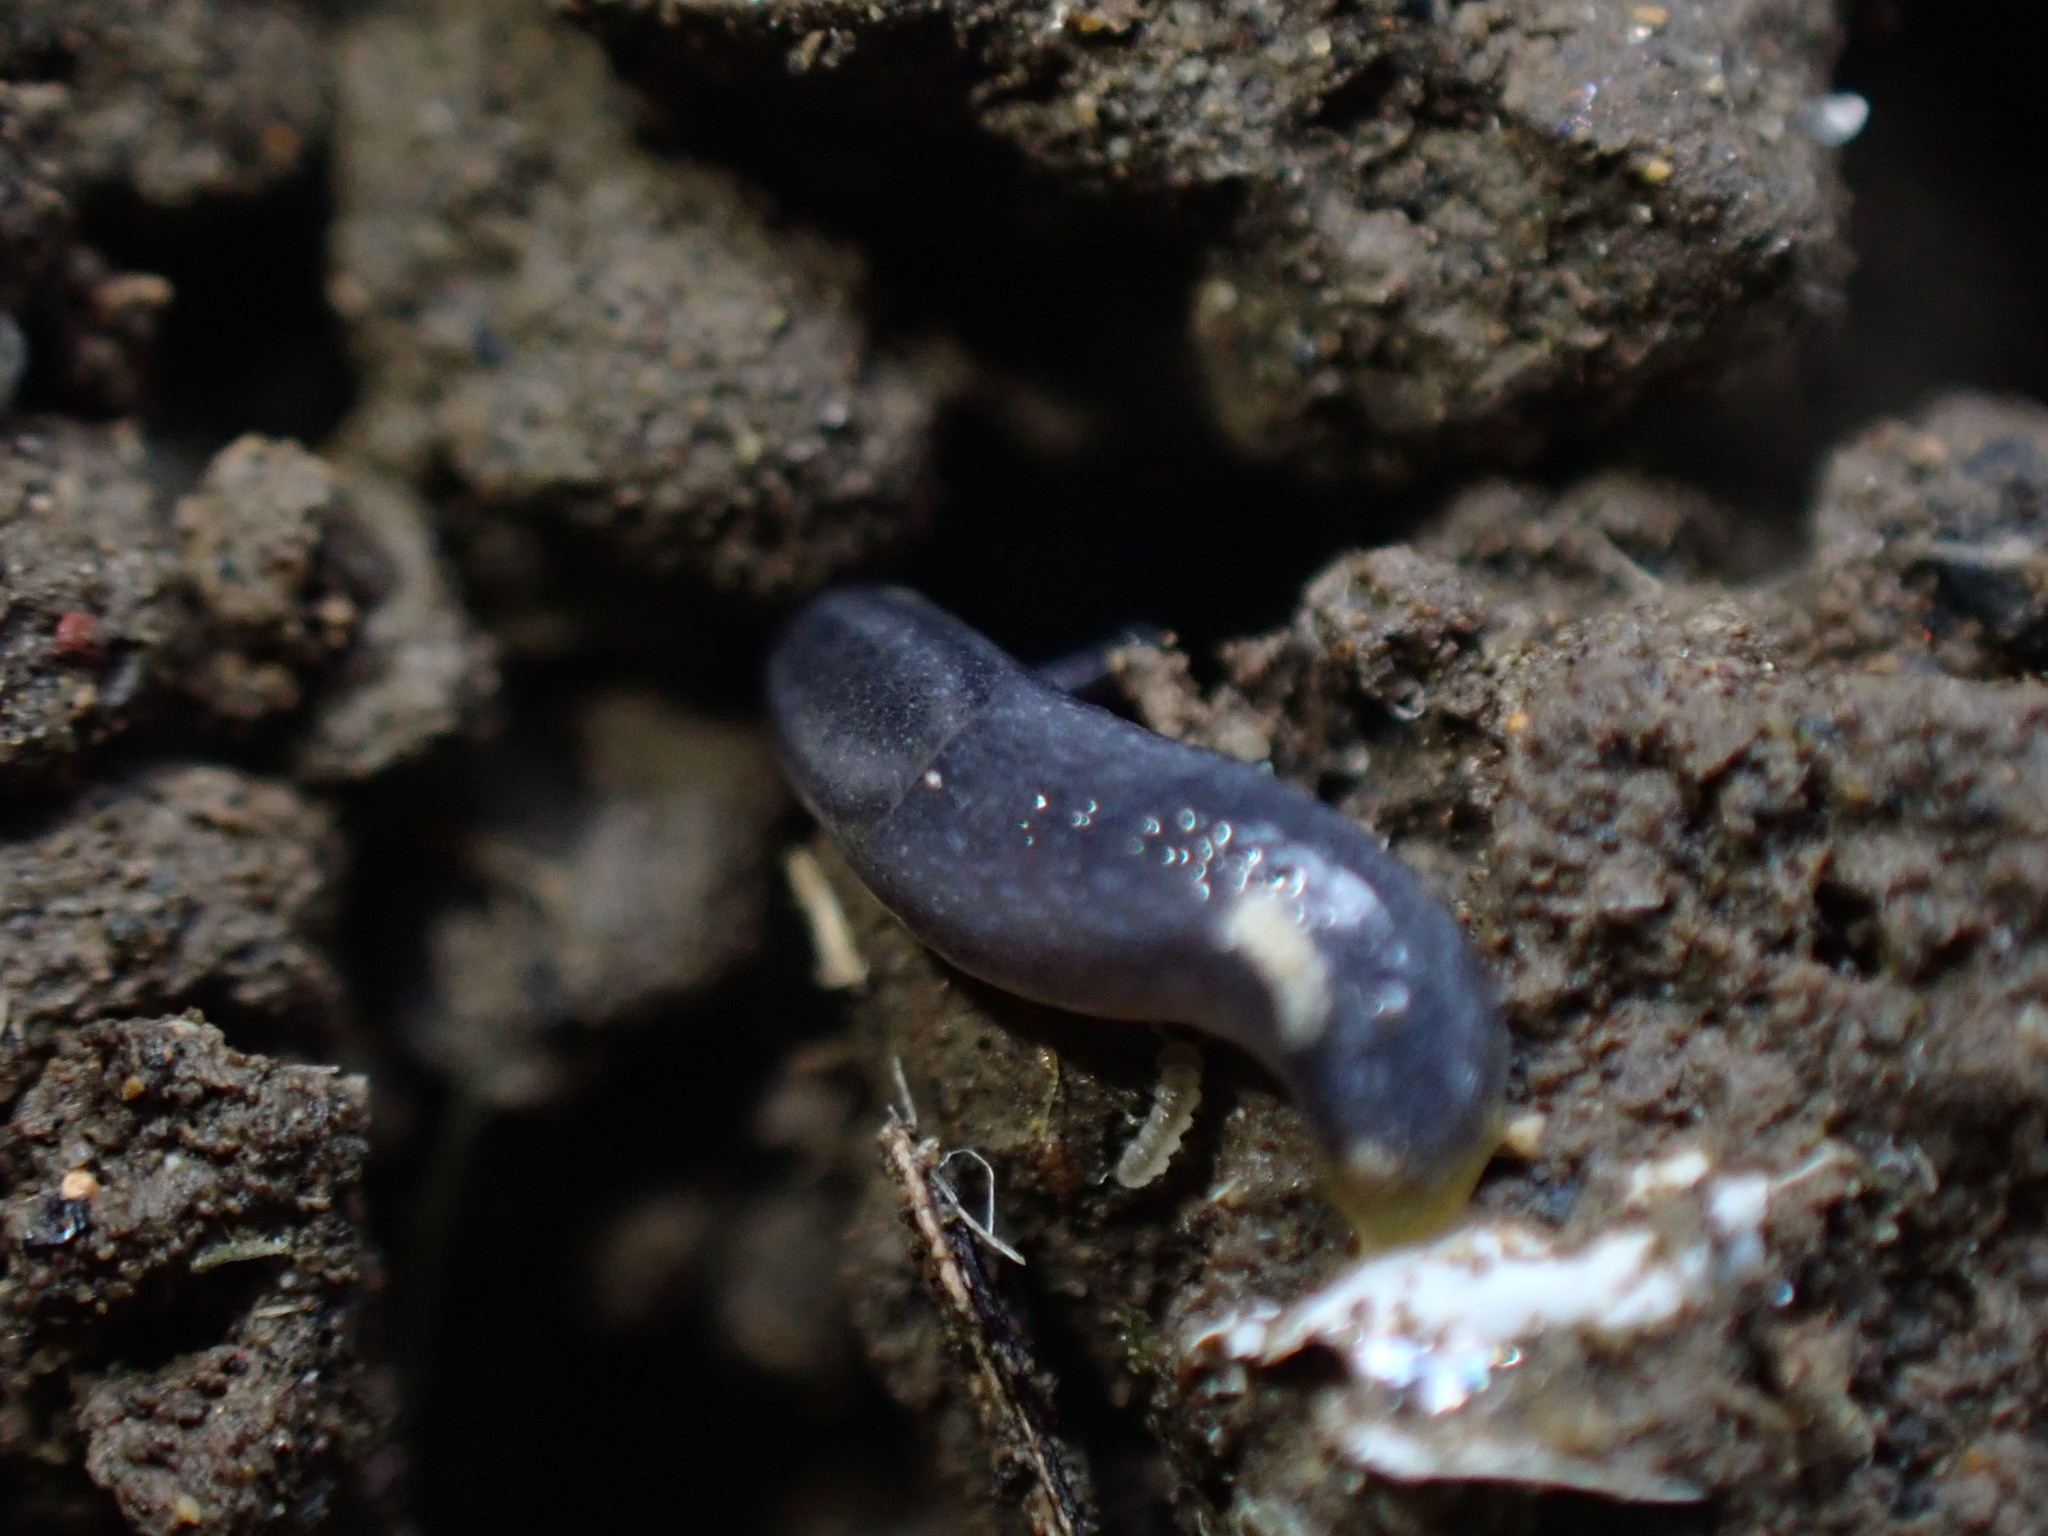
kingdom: Animalia
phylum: Mollusca
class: Gastropoda
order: Stylommatophora
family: Arionidae
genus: Kobeltia
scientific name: Kobeltia
